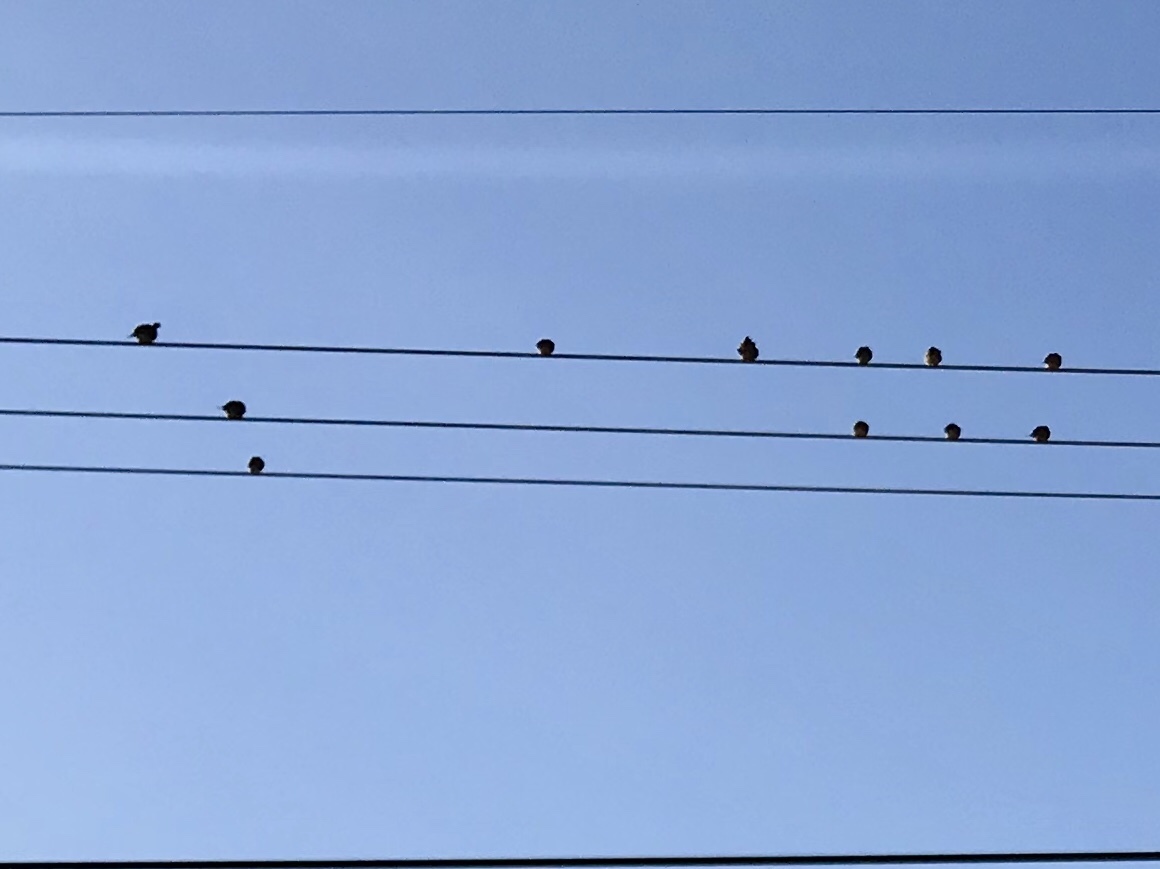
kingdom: Animalia
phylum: Chordata
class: Aves
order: Columbiformes
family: Columbidae
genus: Zenaida
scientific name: Zenaida macroura
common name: Mourning dove
